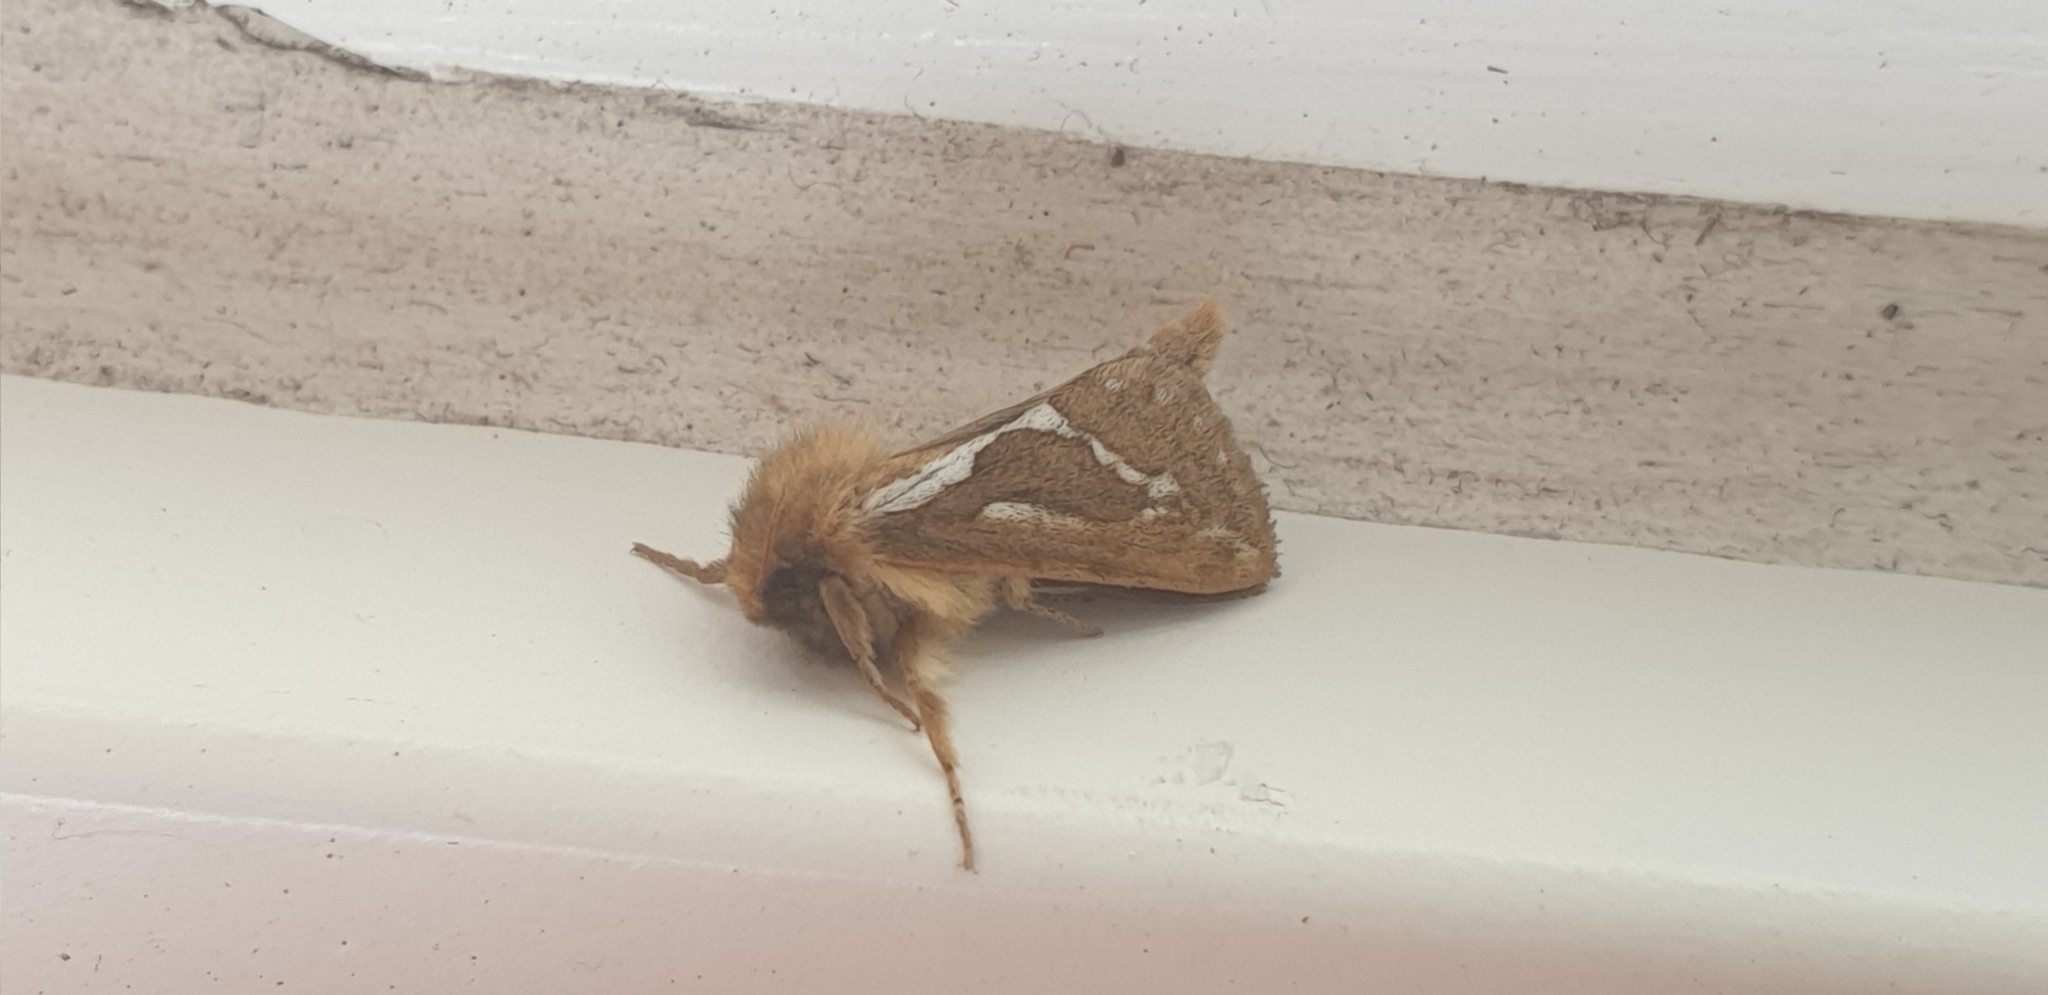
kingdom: Animalia
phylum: Arthropoda
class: Insecta
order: Lepidoptera
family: Hepialidae
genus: Korscheltellus
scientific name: Korscheltellus lupulina
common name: Common swift
